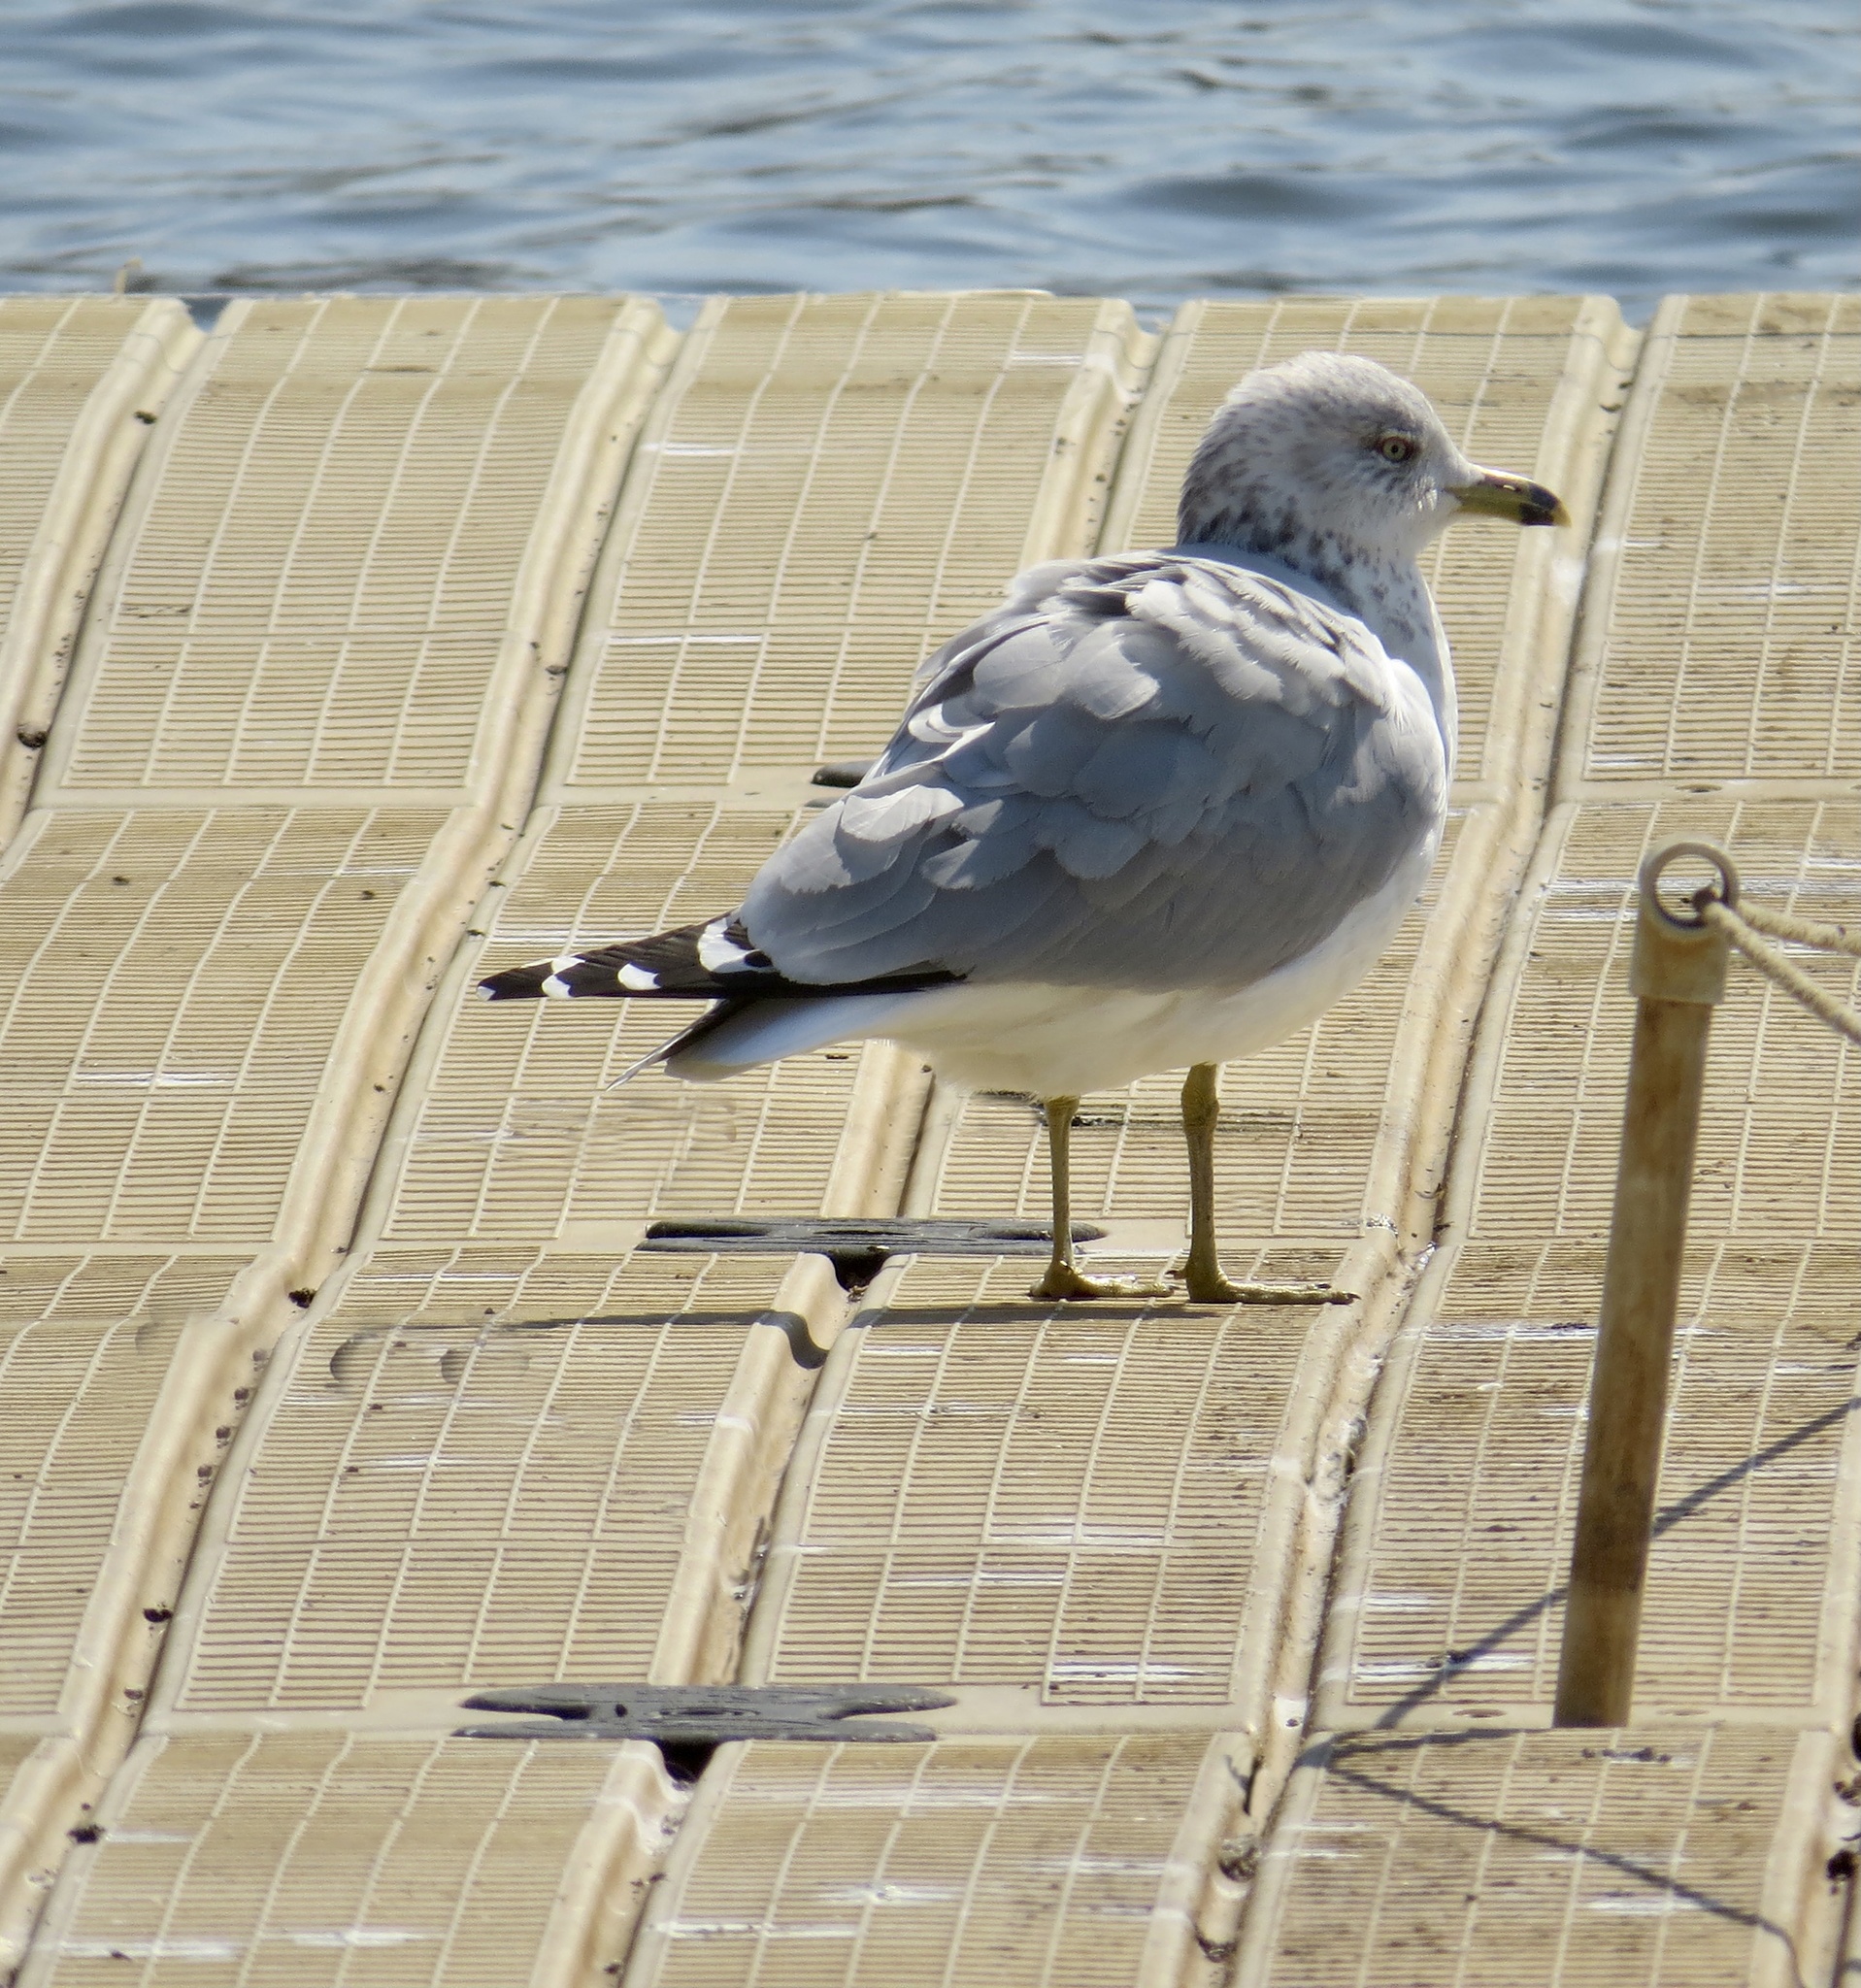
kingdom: Animalia
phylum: Chordata
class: Aves
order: Charadriiformes
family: Laridae
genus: Larus
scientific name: Larus delawarensis
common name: Ring-billed gull
